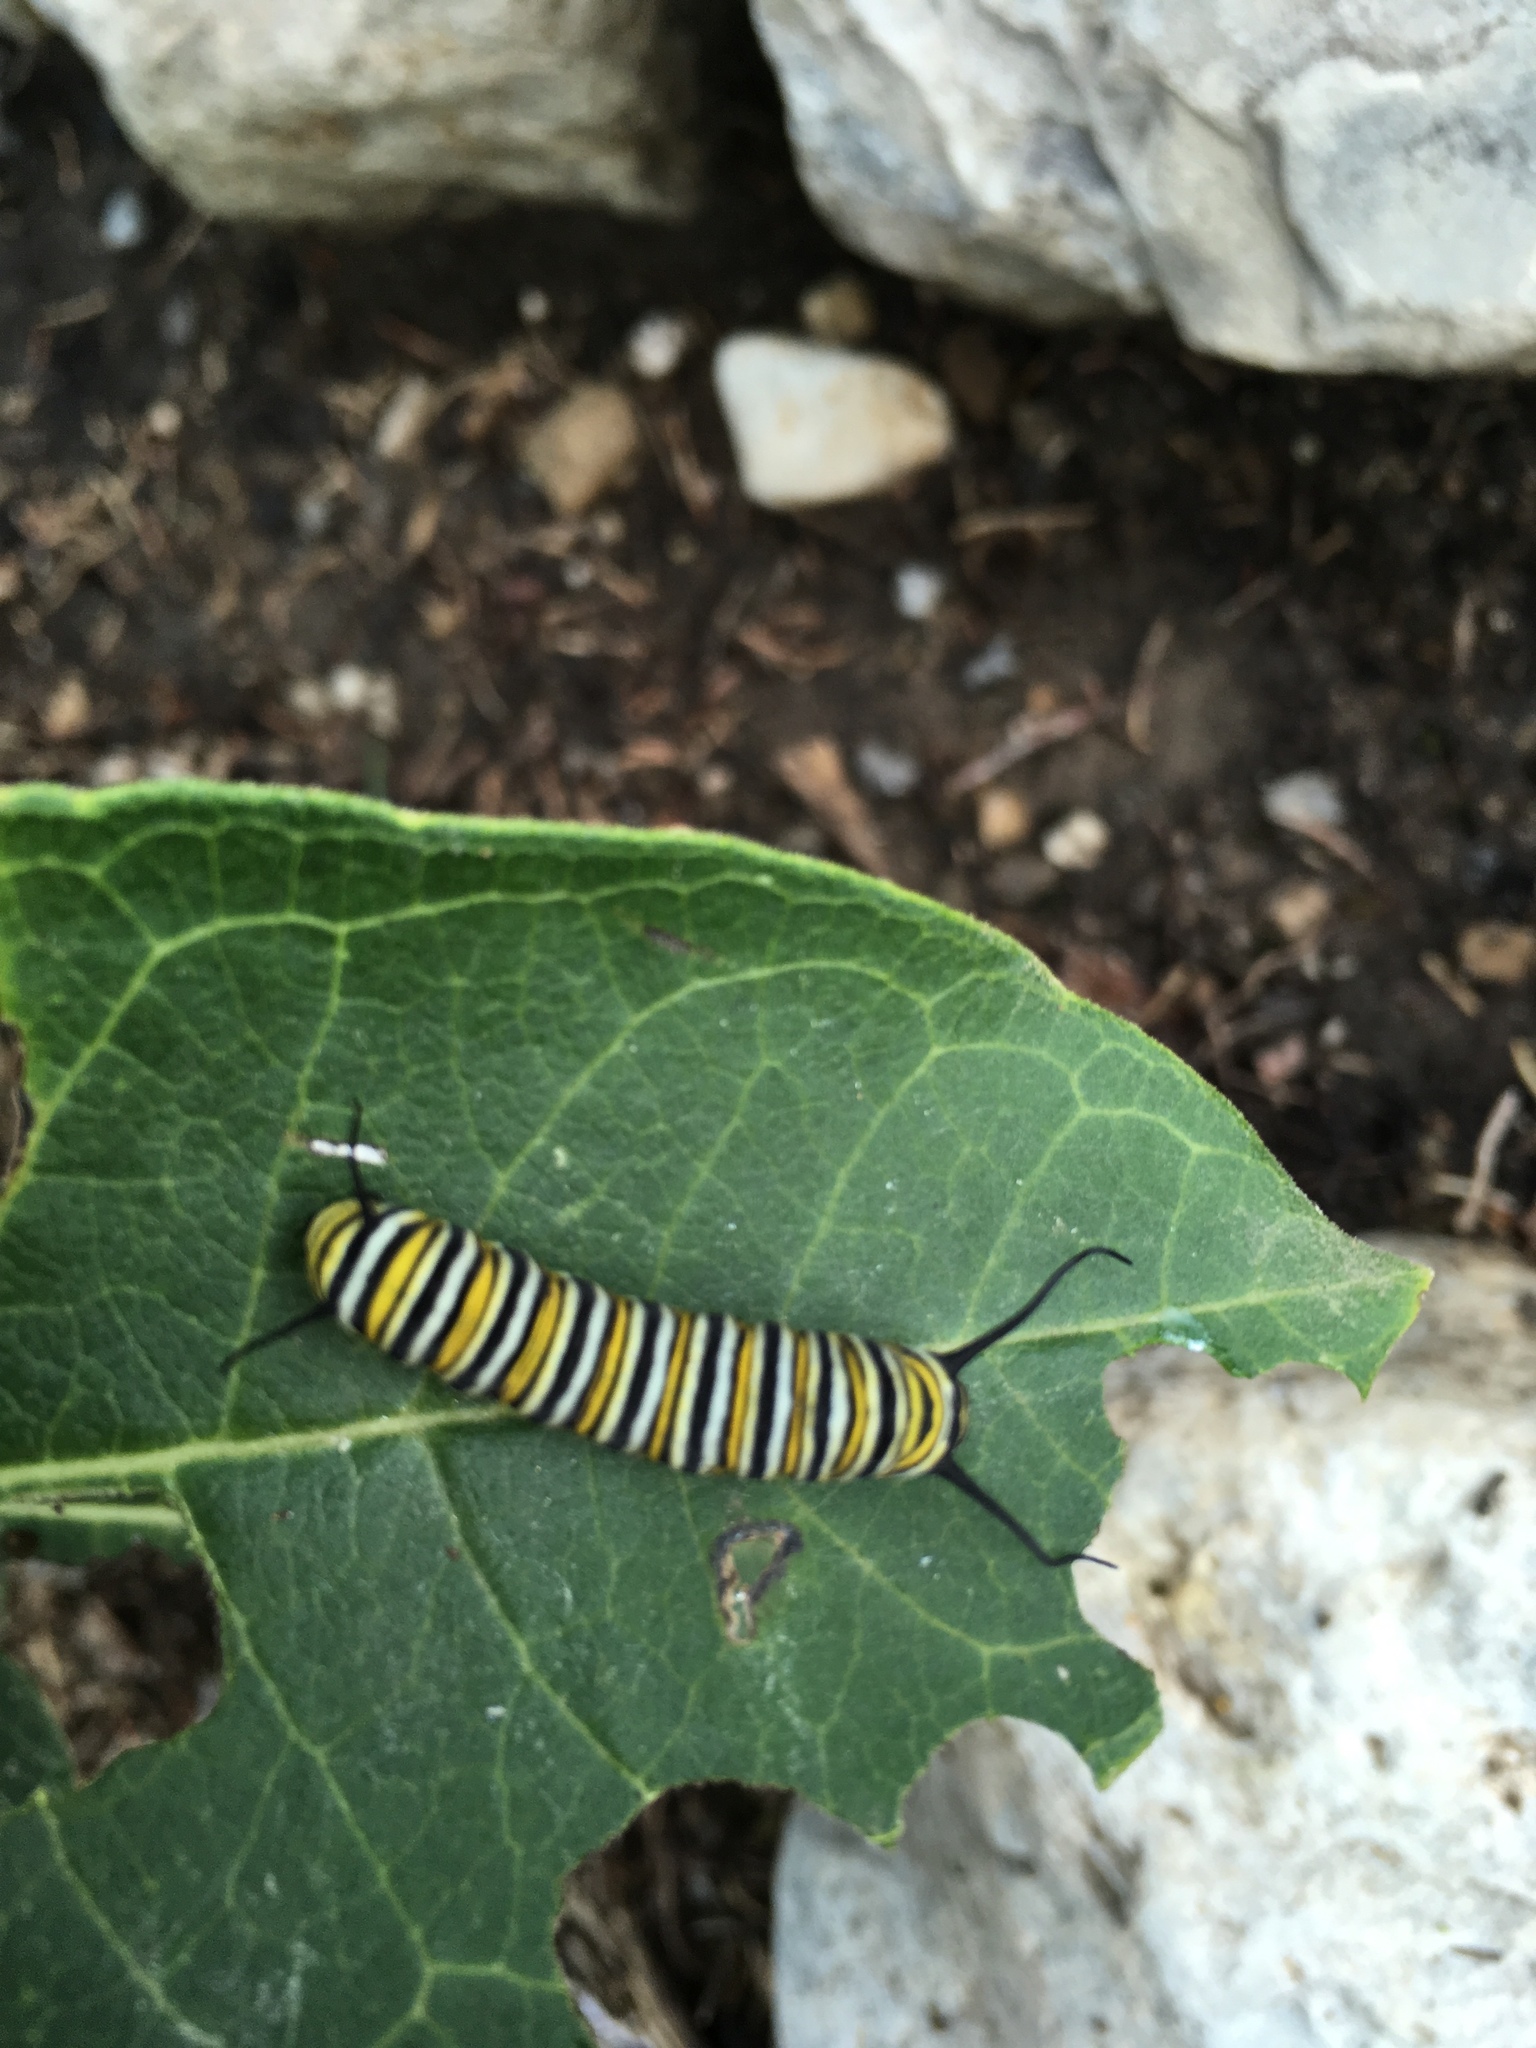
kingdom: Animalia
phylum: Arthropoda
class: Insecta
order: Lepidoptera
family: Nymphalidae
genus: Danaus
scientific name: Danaus plexippus
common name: Monarch
